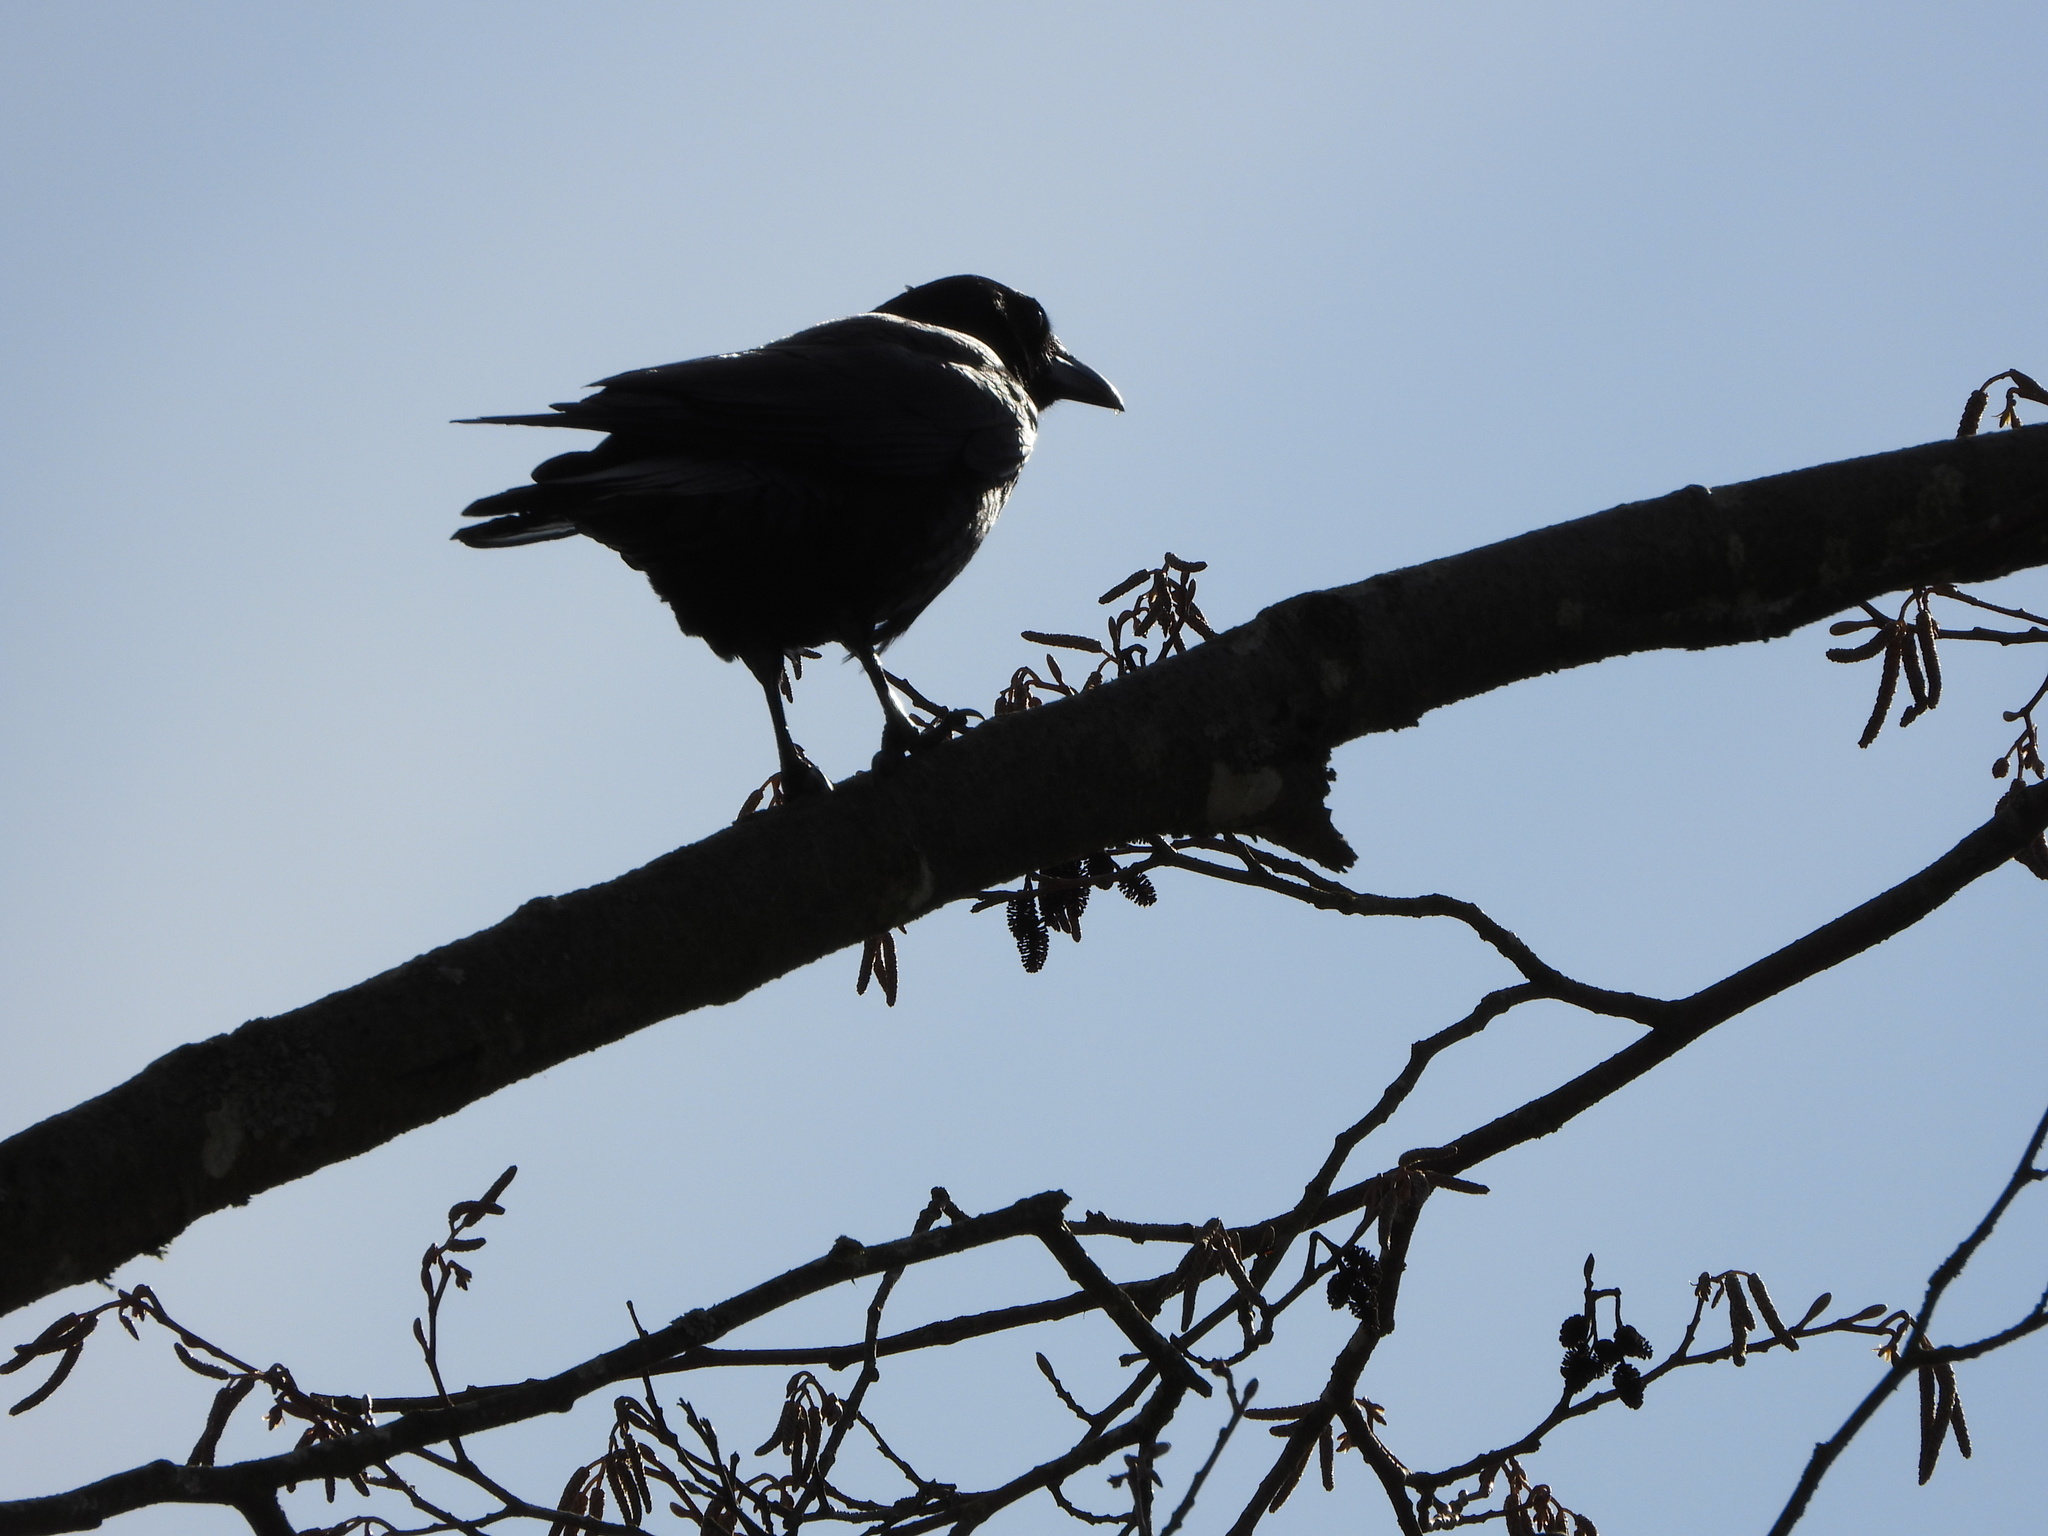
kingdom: Animalia
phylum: Chordata
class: Aves
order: Passeriformes
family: Corvidae
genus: Corvus
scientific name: Corvus brachyrhynchos
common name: American crow
